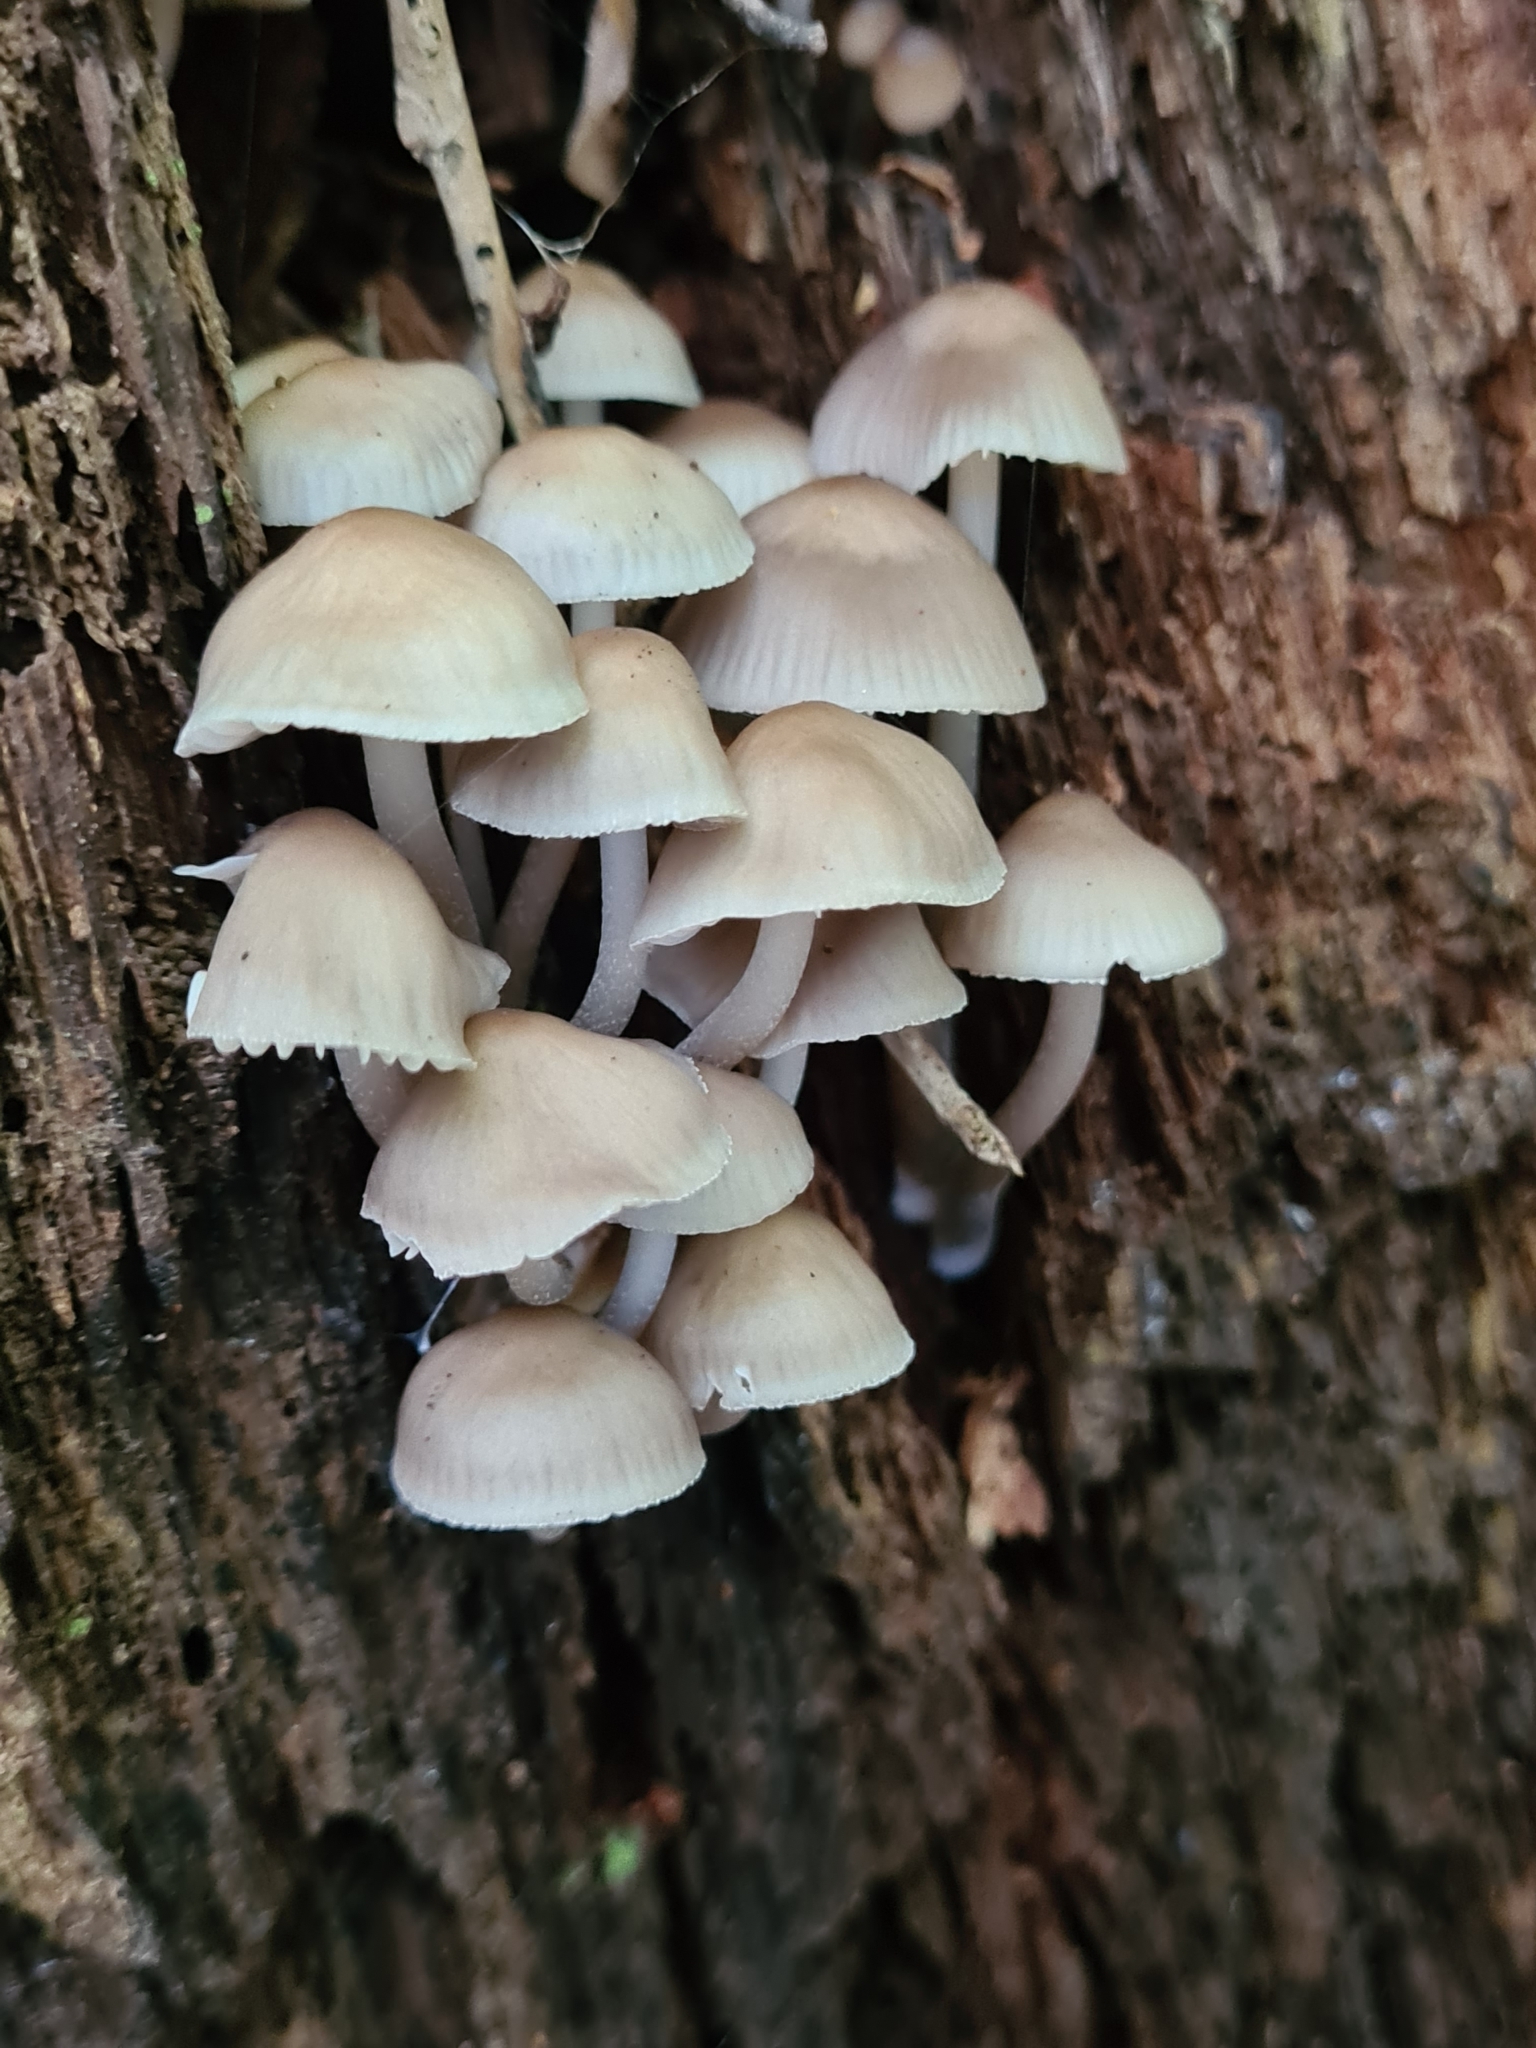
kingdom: Fungi
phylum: Basidiomycota
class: Agaricomycetes
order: Agaricales
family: Mycenaceae
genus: Mycena
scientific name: Mycena inclinata
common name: Clustered bonnet
